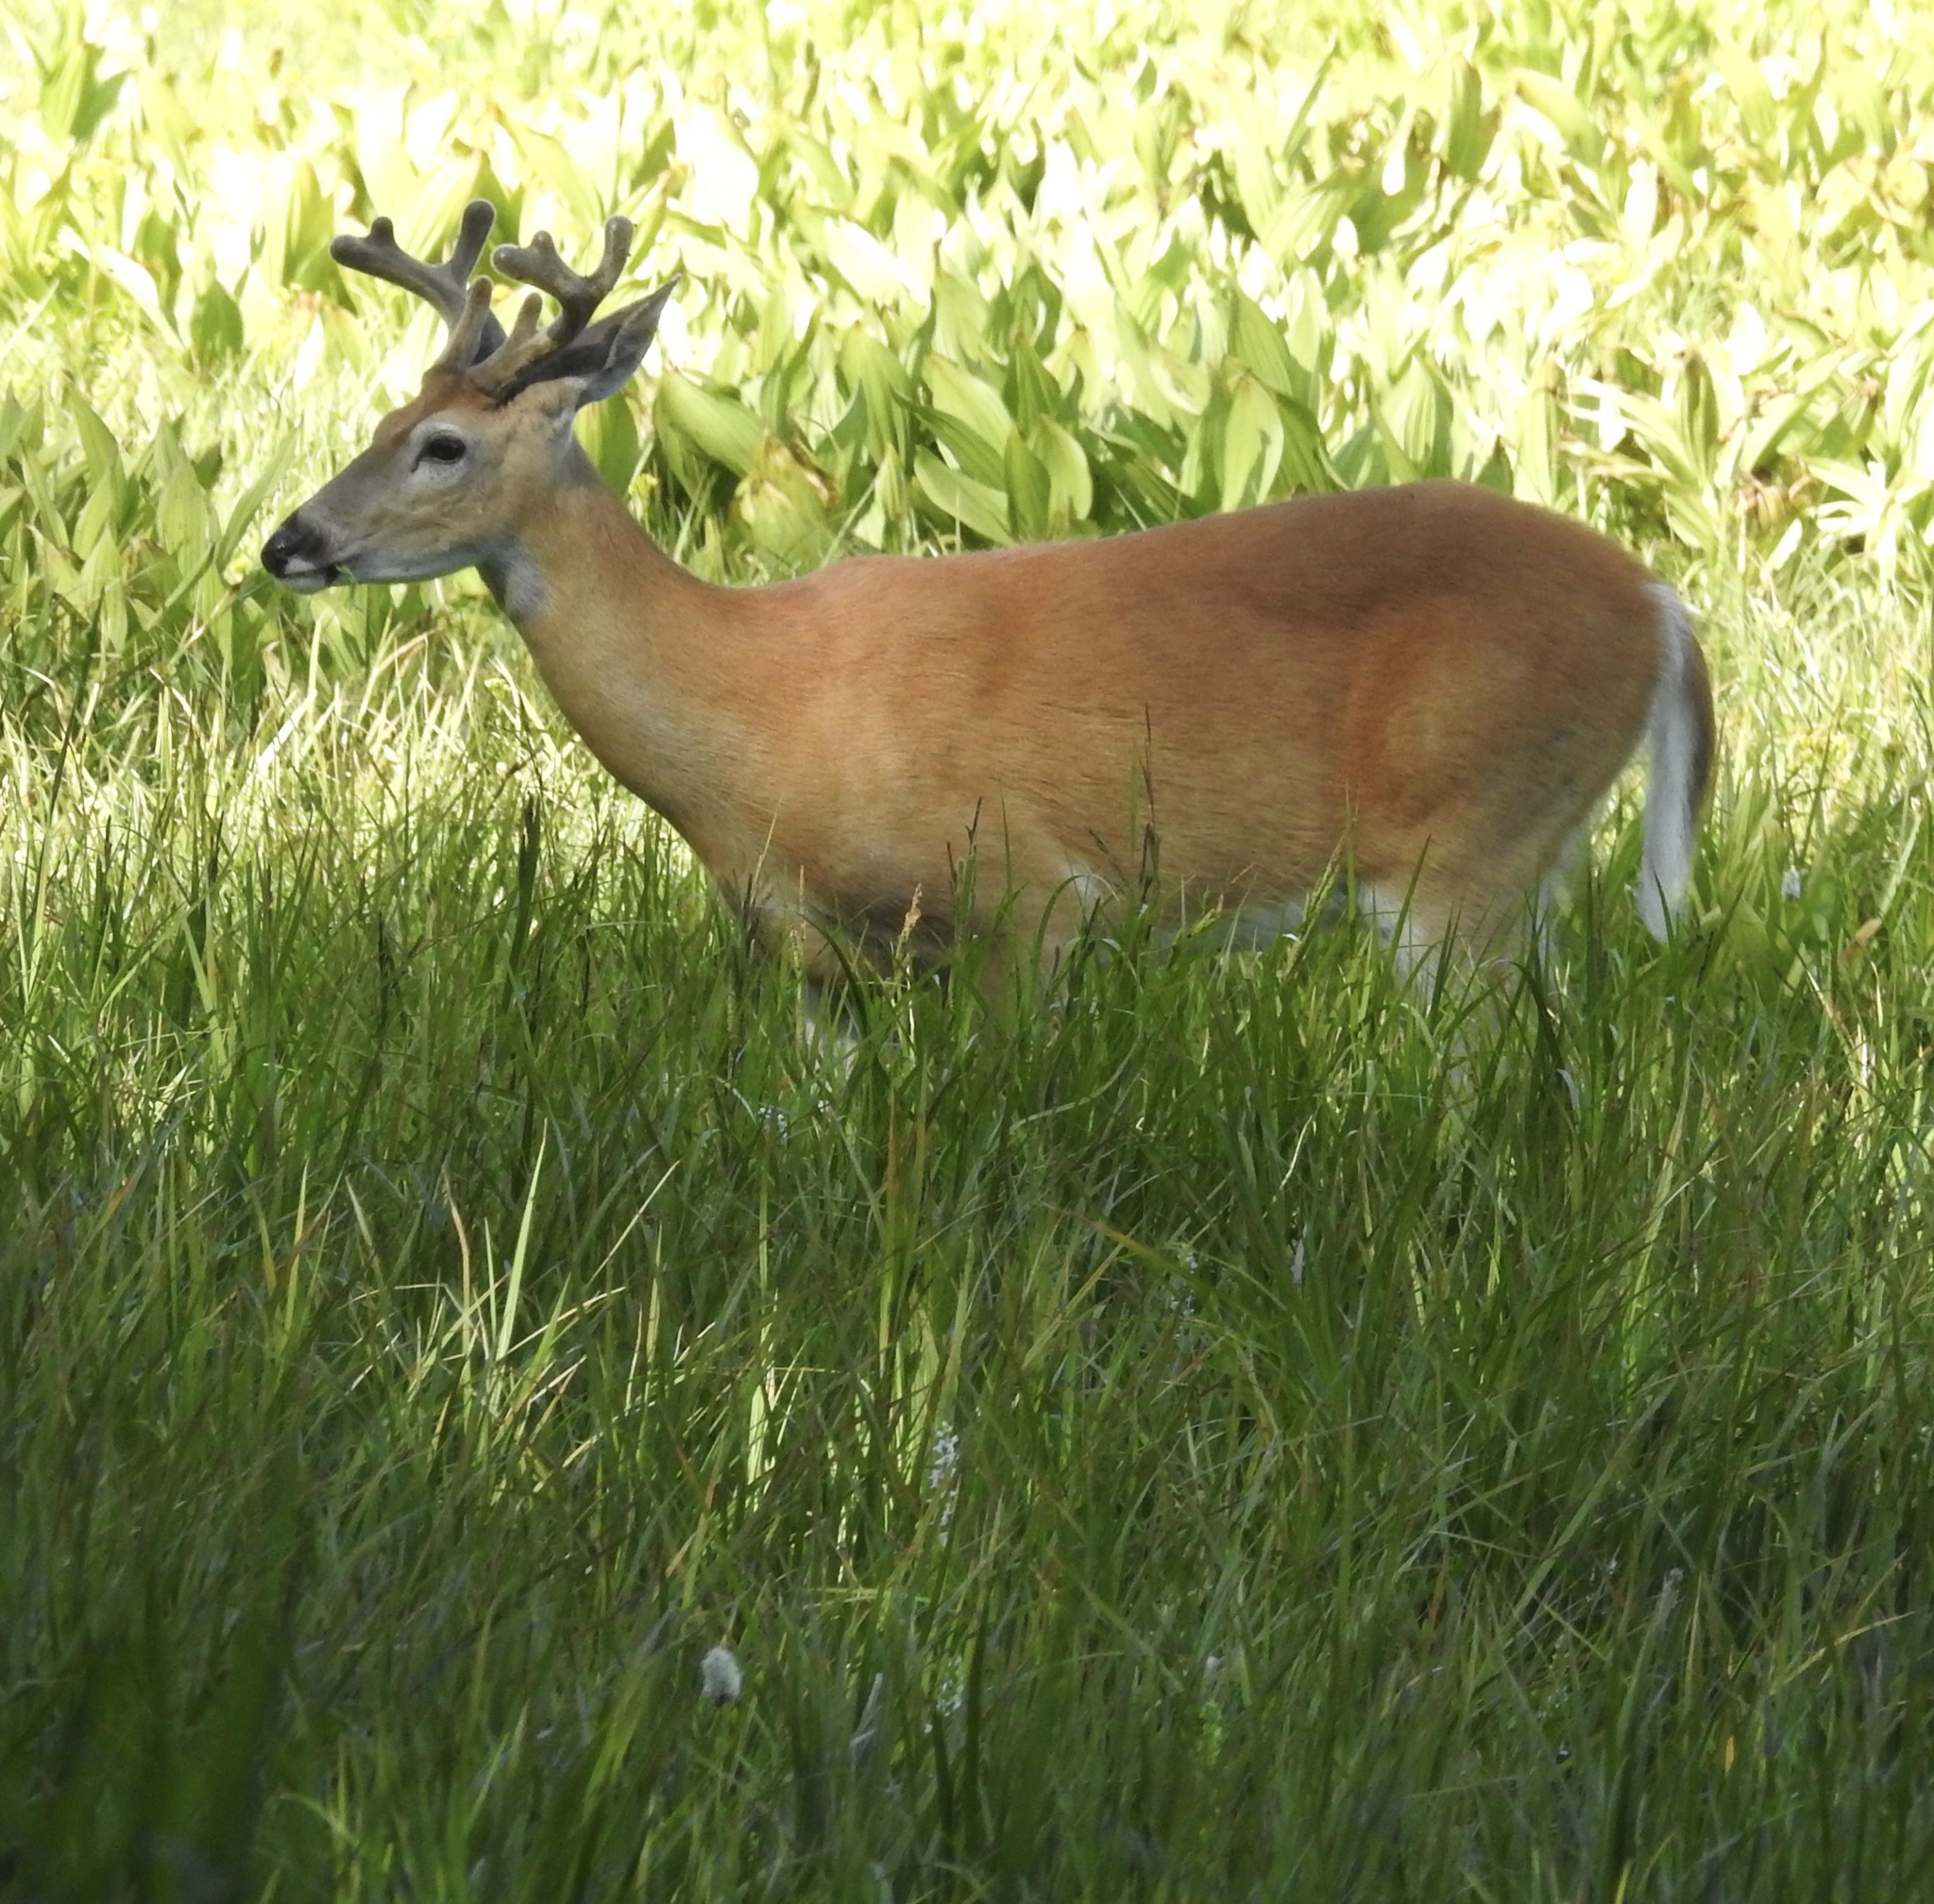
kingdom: Animalia
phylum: Chordata
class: Mammalia
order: Artiodactyla
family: Cervidae
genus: Odocoileus
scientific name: Odocoileus virginianus
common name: White-tailed deer
